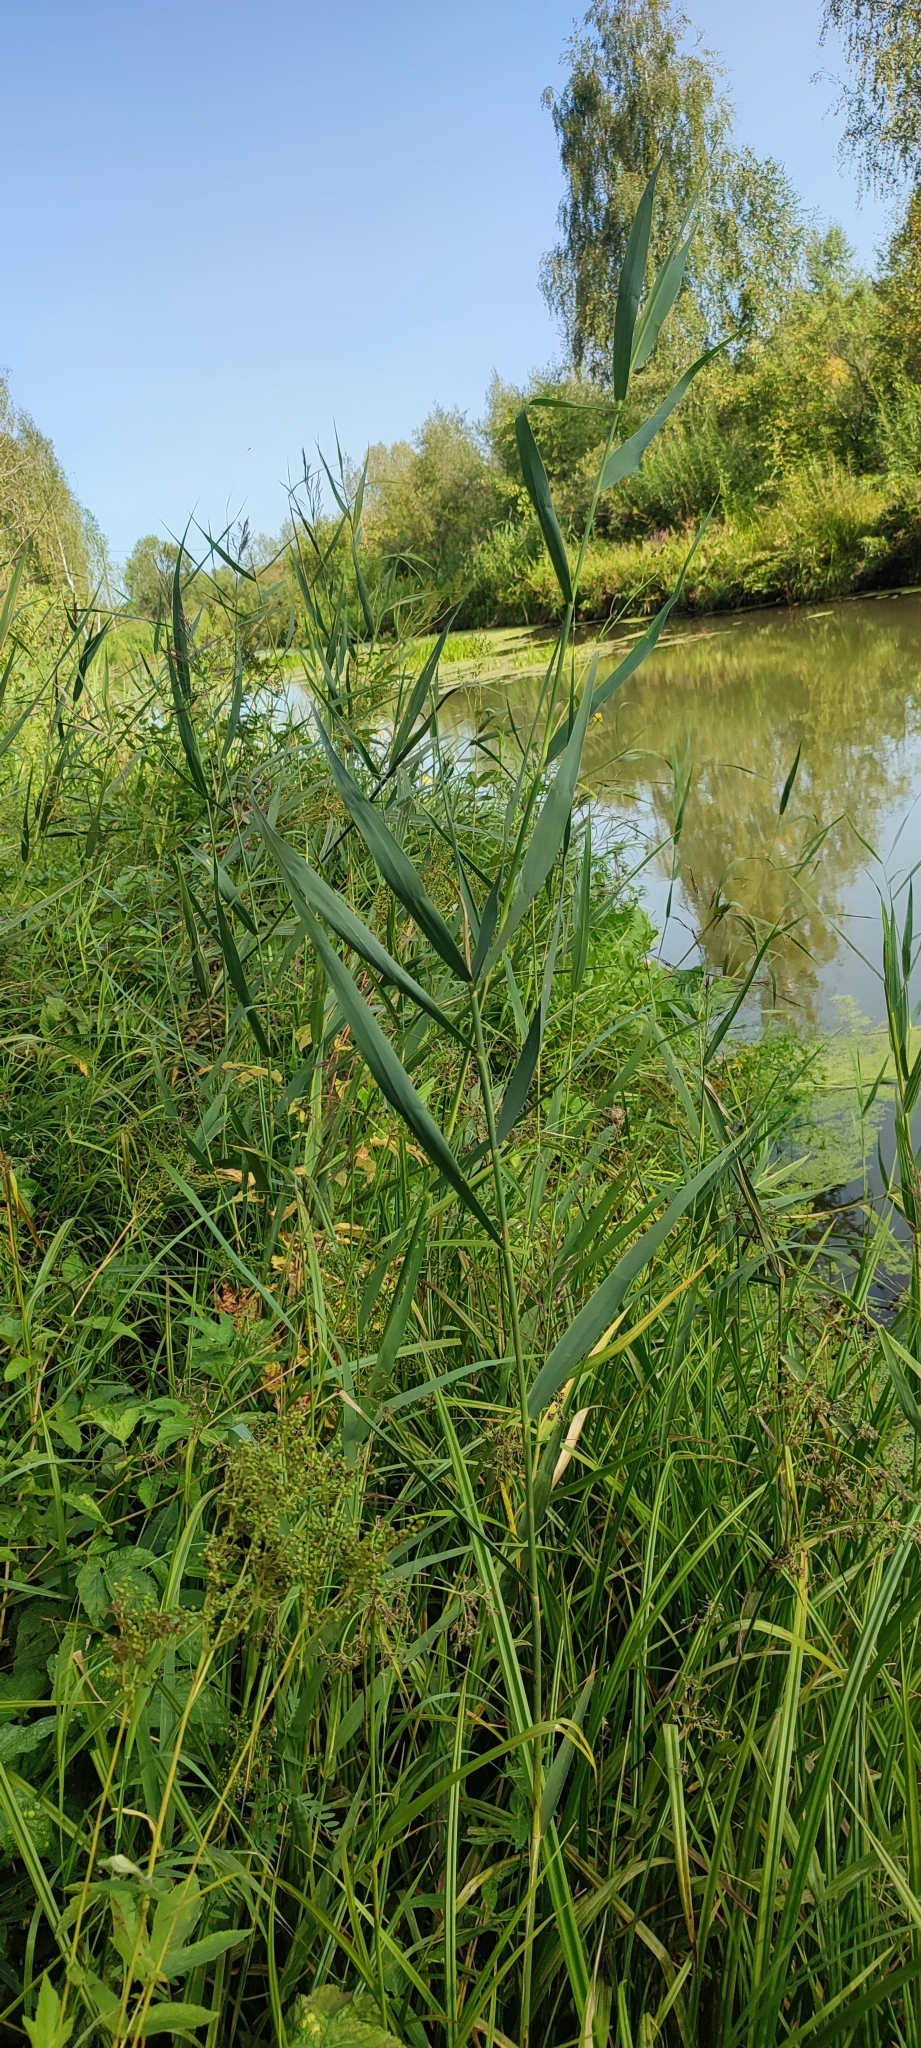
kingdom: Plantae
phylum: Tracheophyta
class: Liliopsida
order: Poales
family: Poaceae
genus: Phragmites
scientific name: Phragmites australis
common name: Common reed
